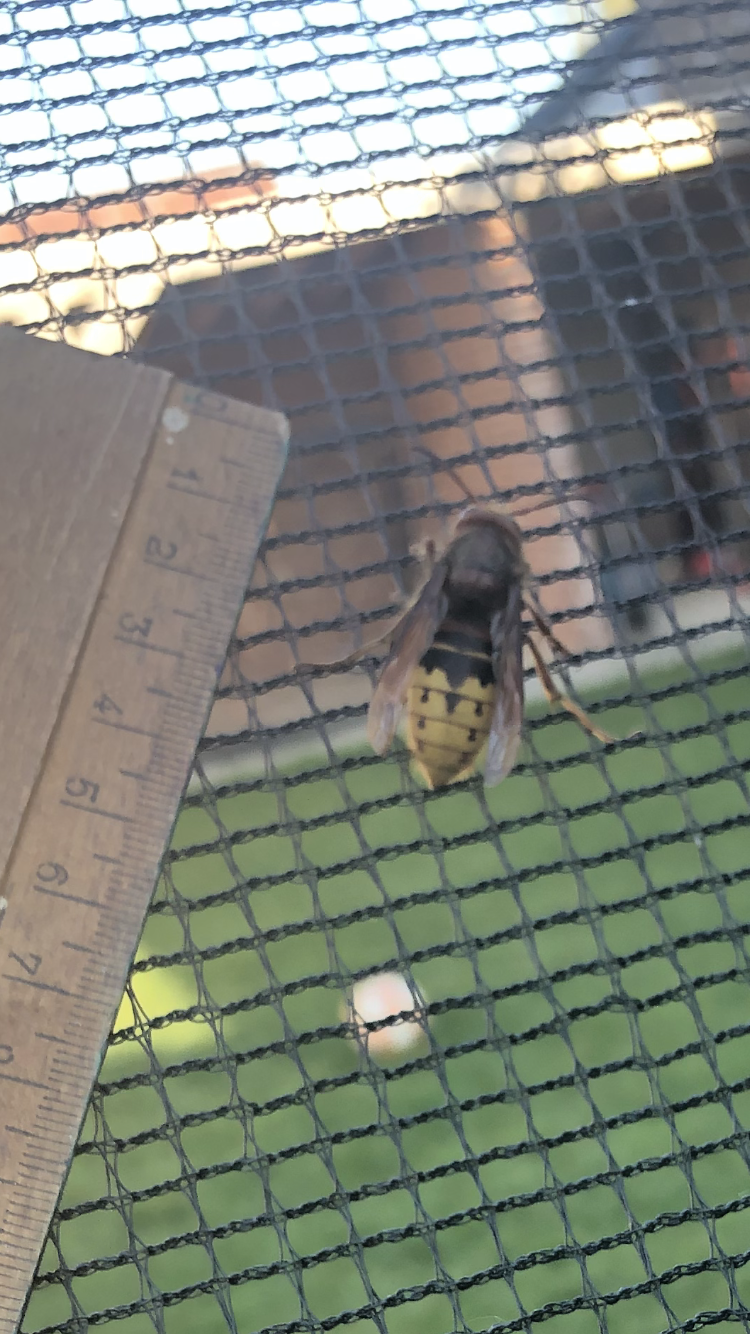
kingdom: Animalia
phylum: Arthropoda
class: Insecta
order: Hymenoptera
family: Vespidae
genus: Vespa
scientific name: Vespa crabro
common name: Hornet
